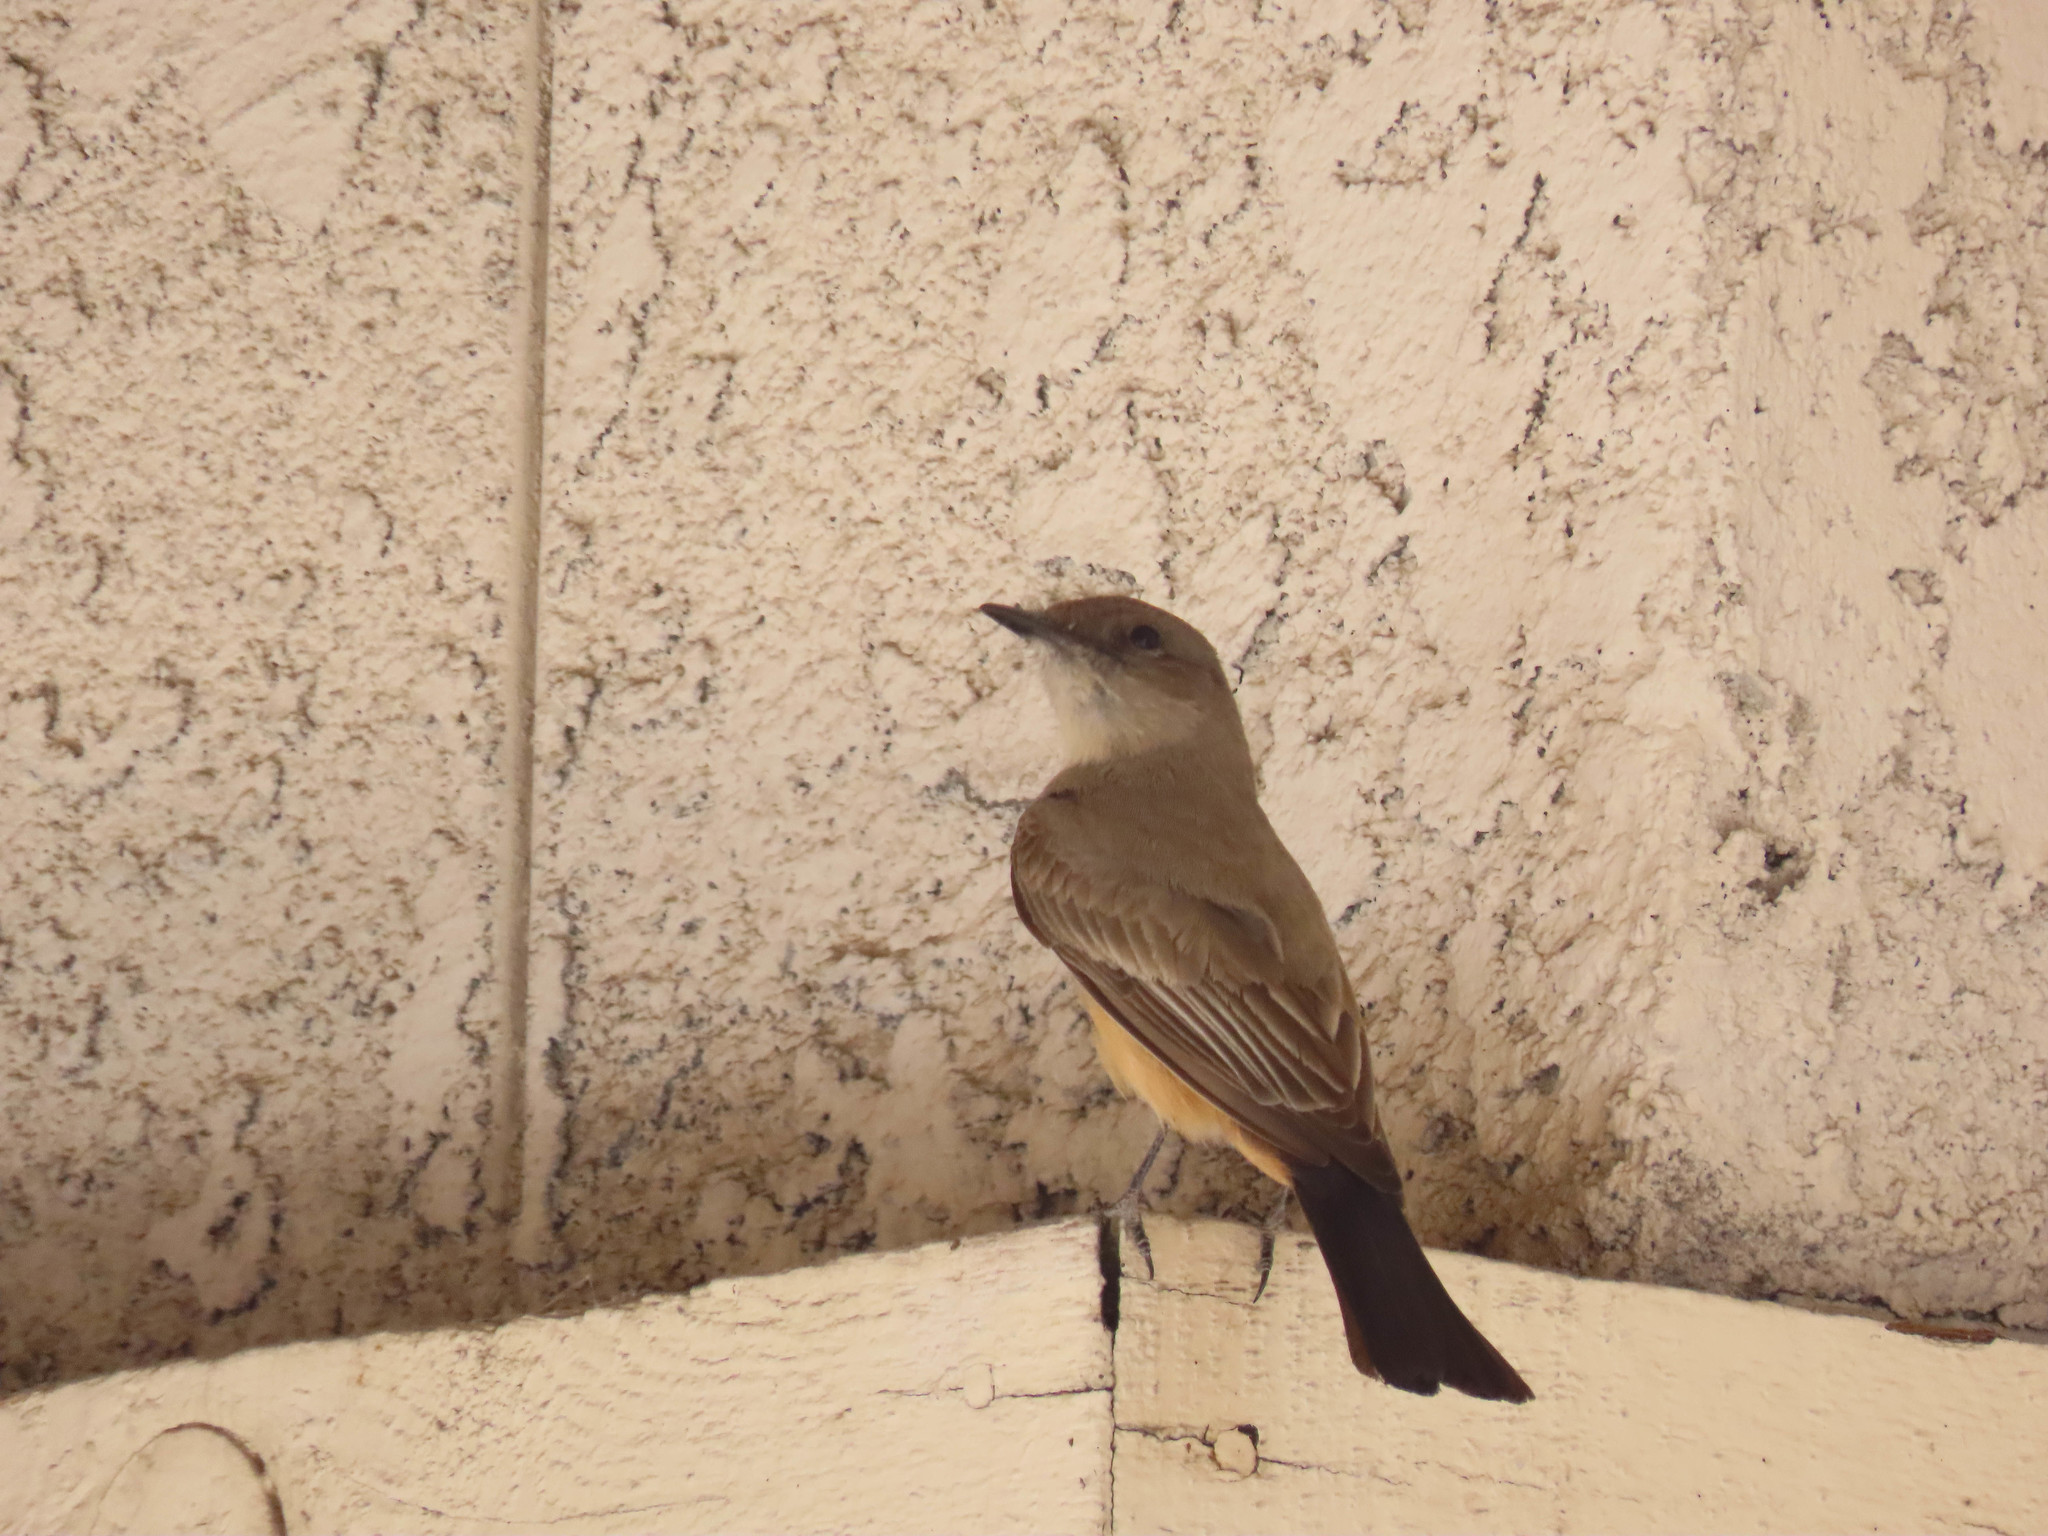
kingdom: Animalia
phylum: Chordata
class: Aves
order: Passeriformes
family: Tyrannidae
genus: Sayornis
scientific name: Sayornis saya
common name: Say's phoebe
